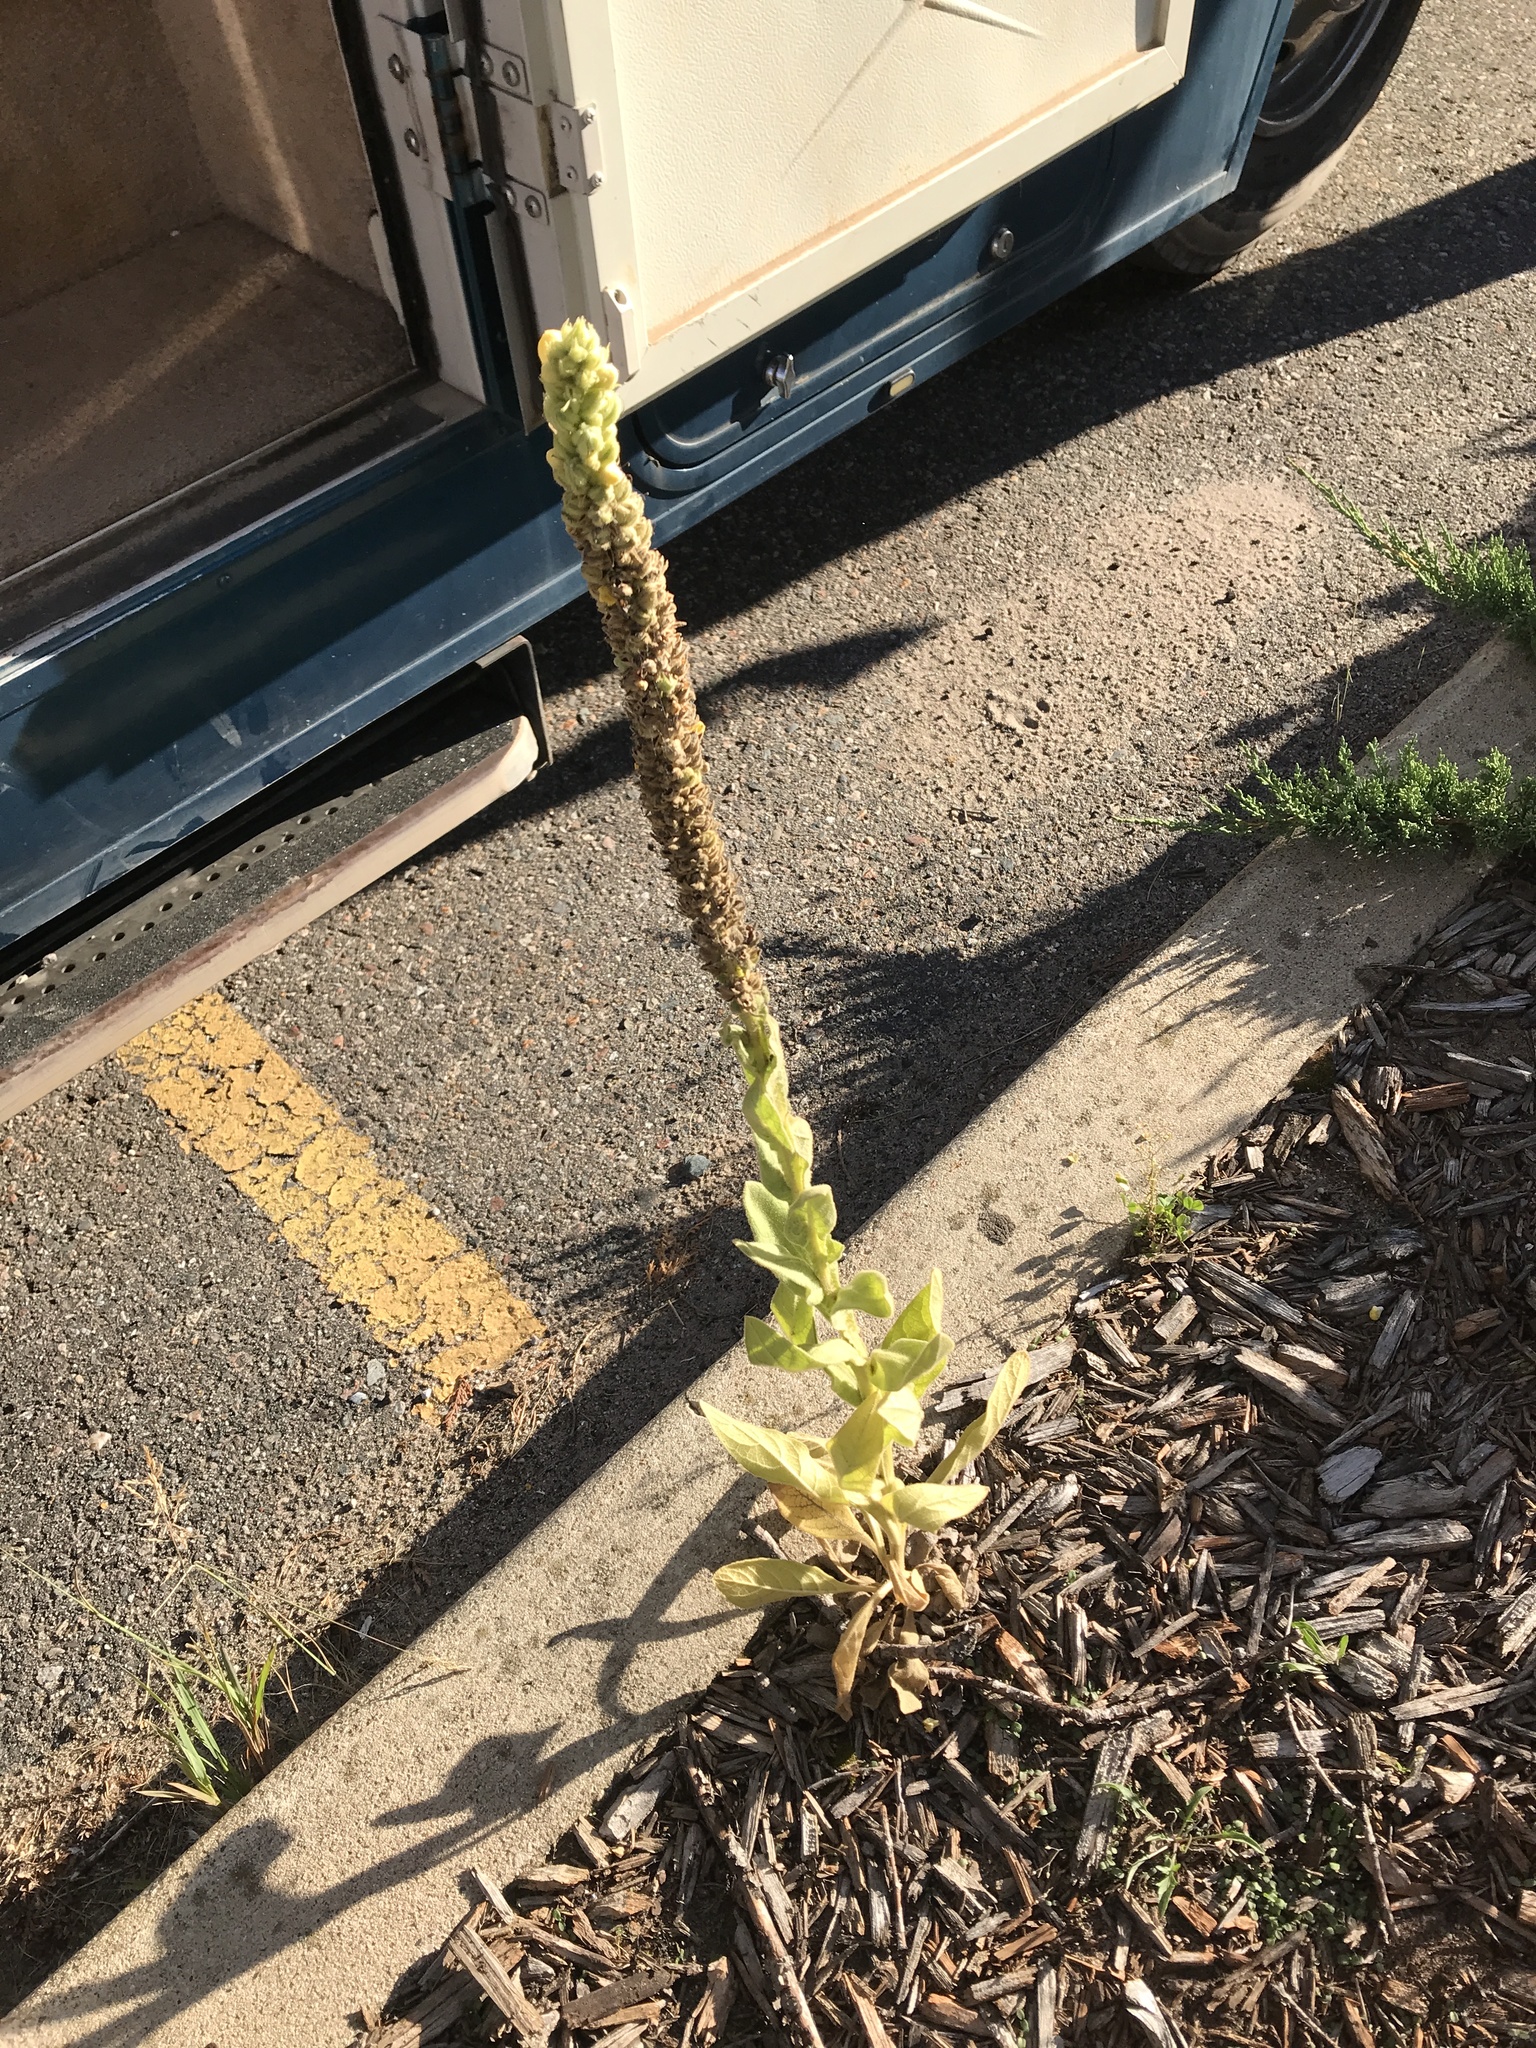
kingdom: Plantae
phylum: Tracheophyta
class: Magnoliopsida
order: Lamiales
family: Scrophulariaceae
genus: Verbascum
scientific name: Verbascum thapsus
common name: Common mullein
